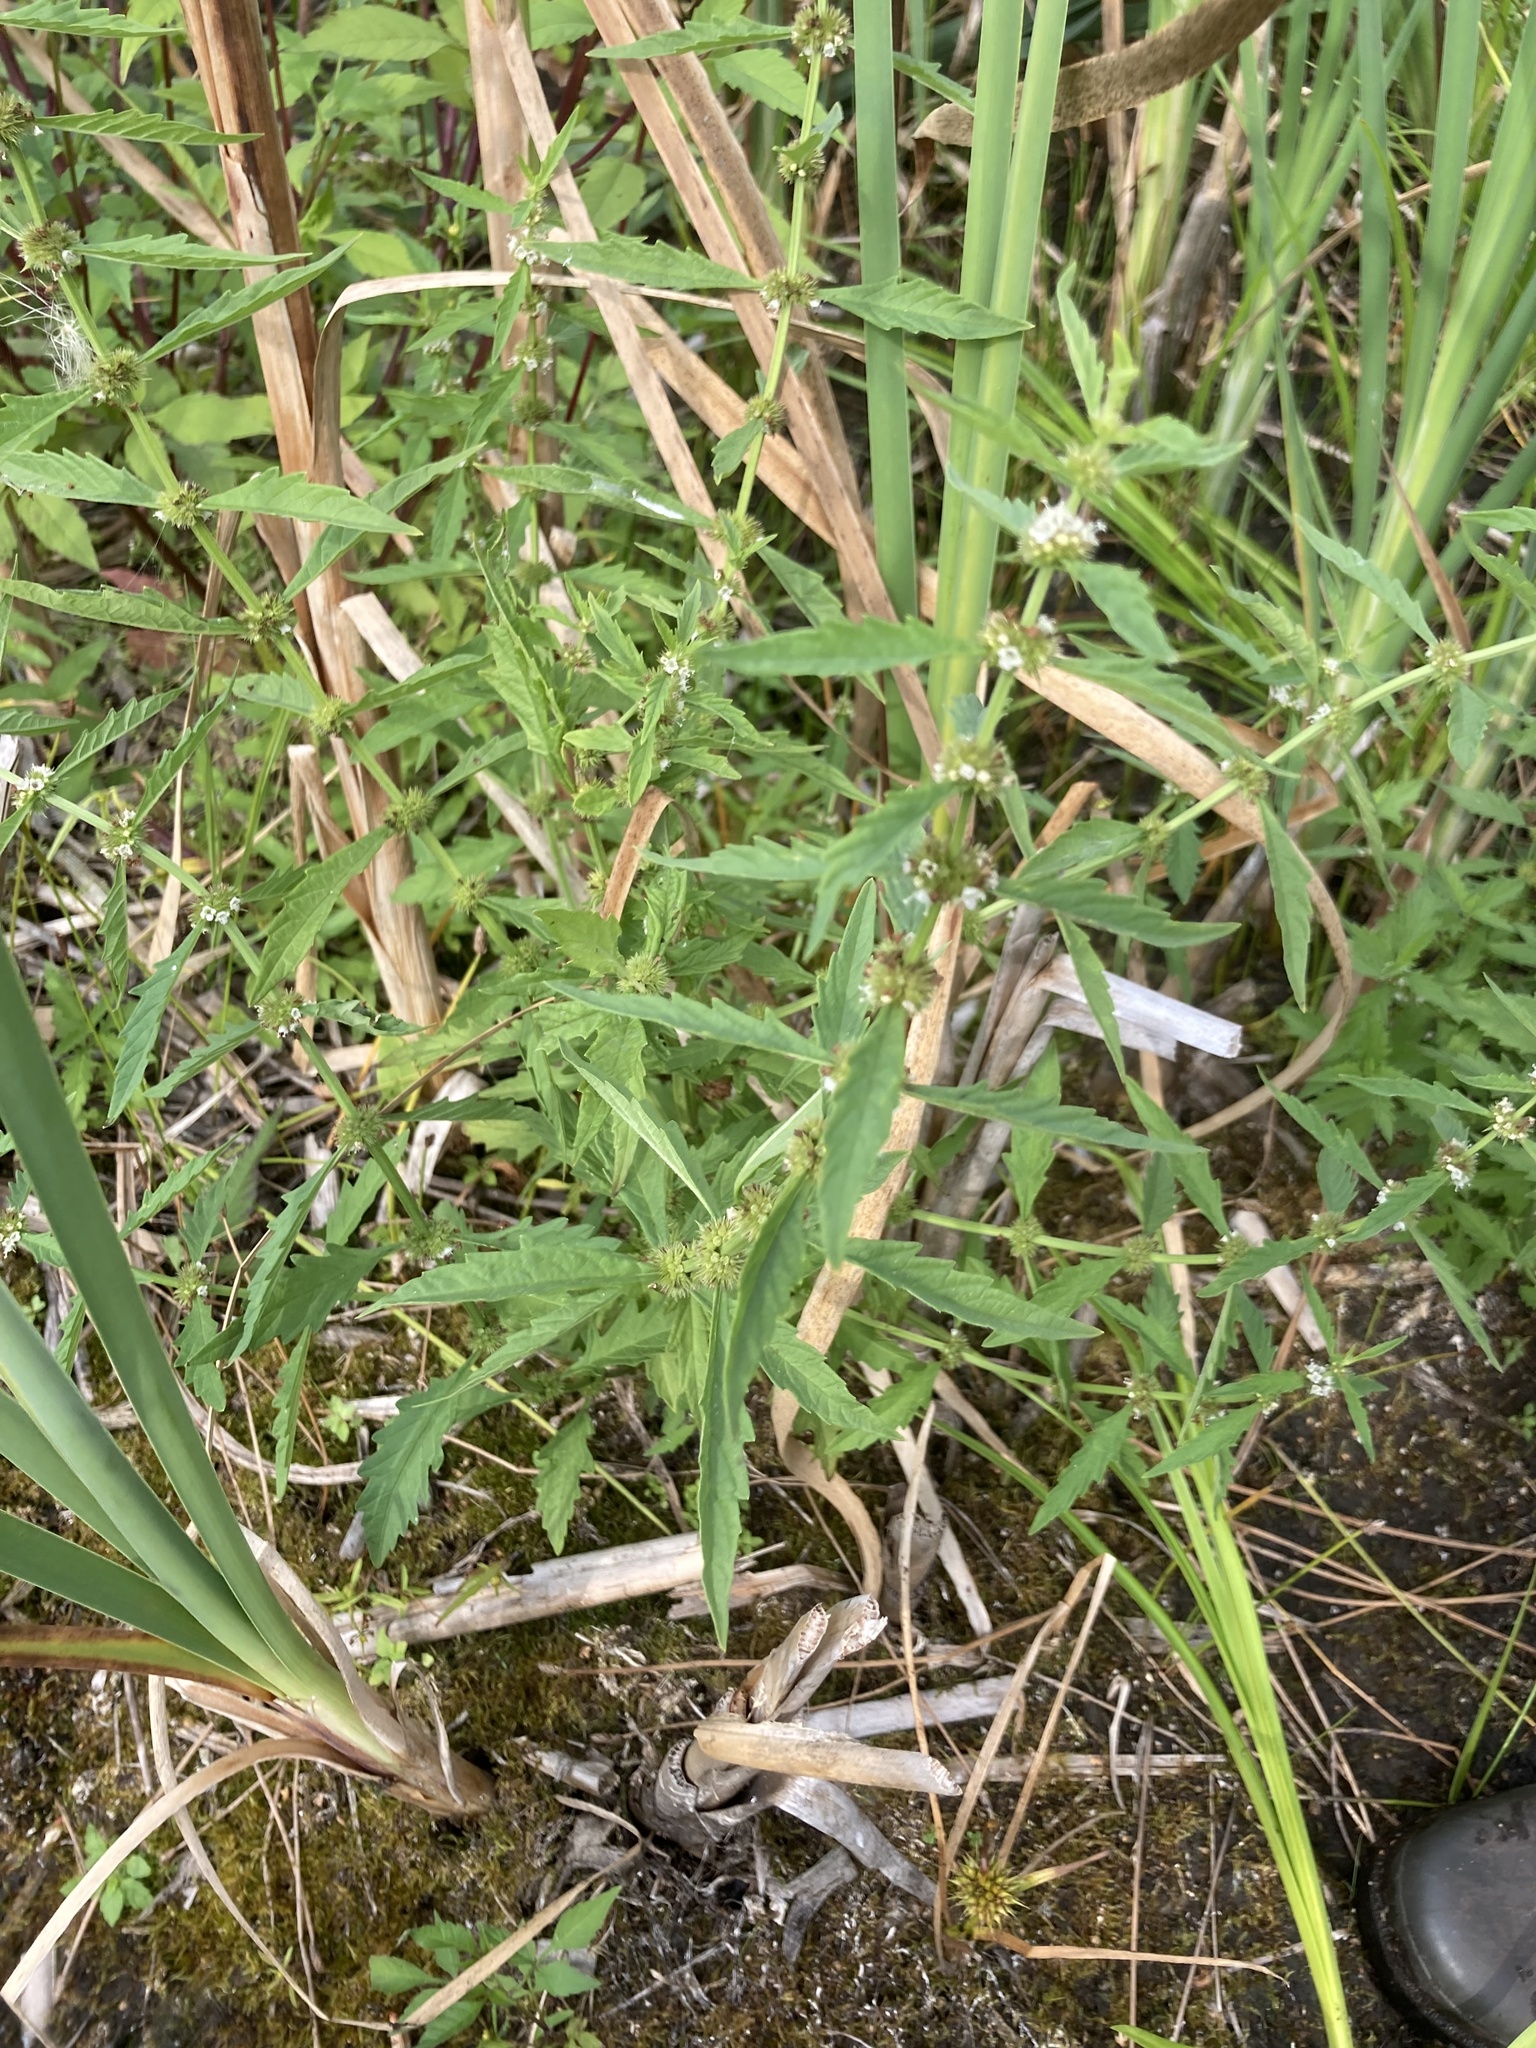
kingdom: Plantae
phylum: Tracheophyta
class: Magnoliopsida
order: Lamiales
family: Lamiaceae
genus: Lycopus
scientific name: Lycopus europaeus
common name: European bugleweed
